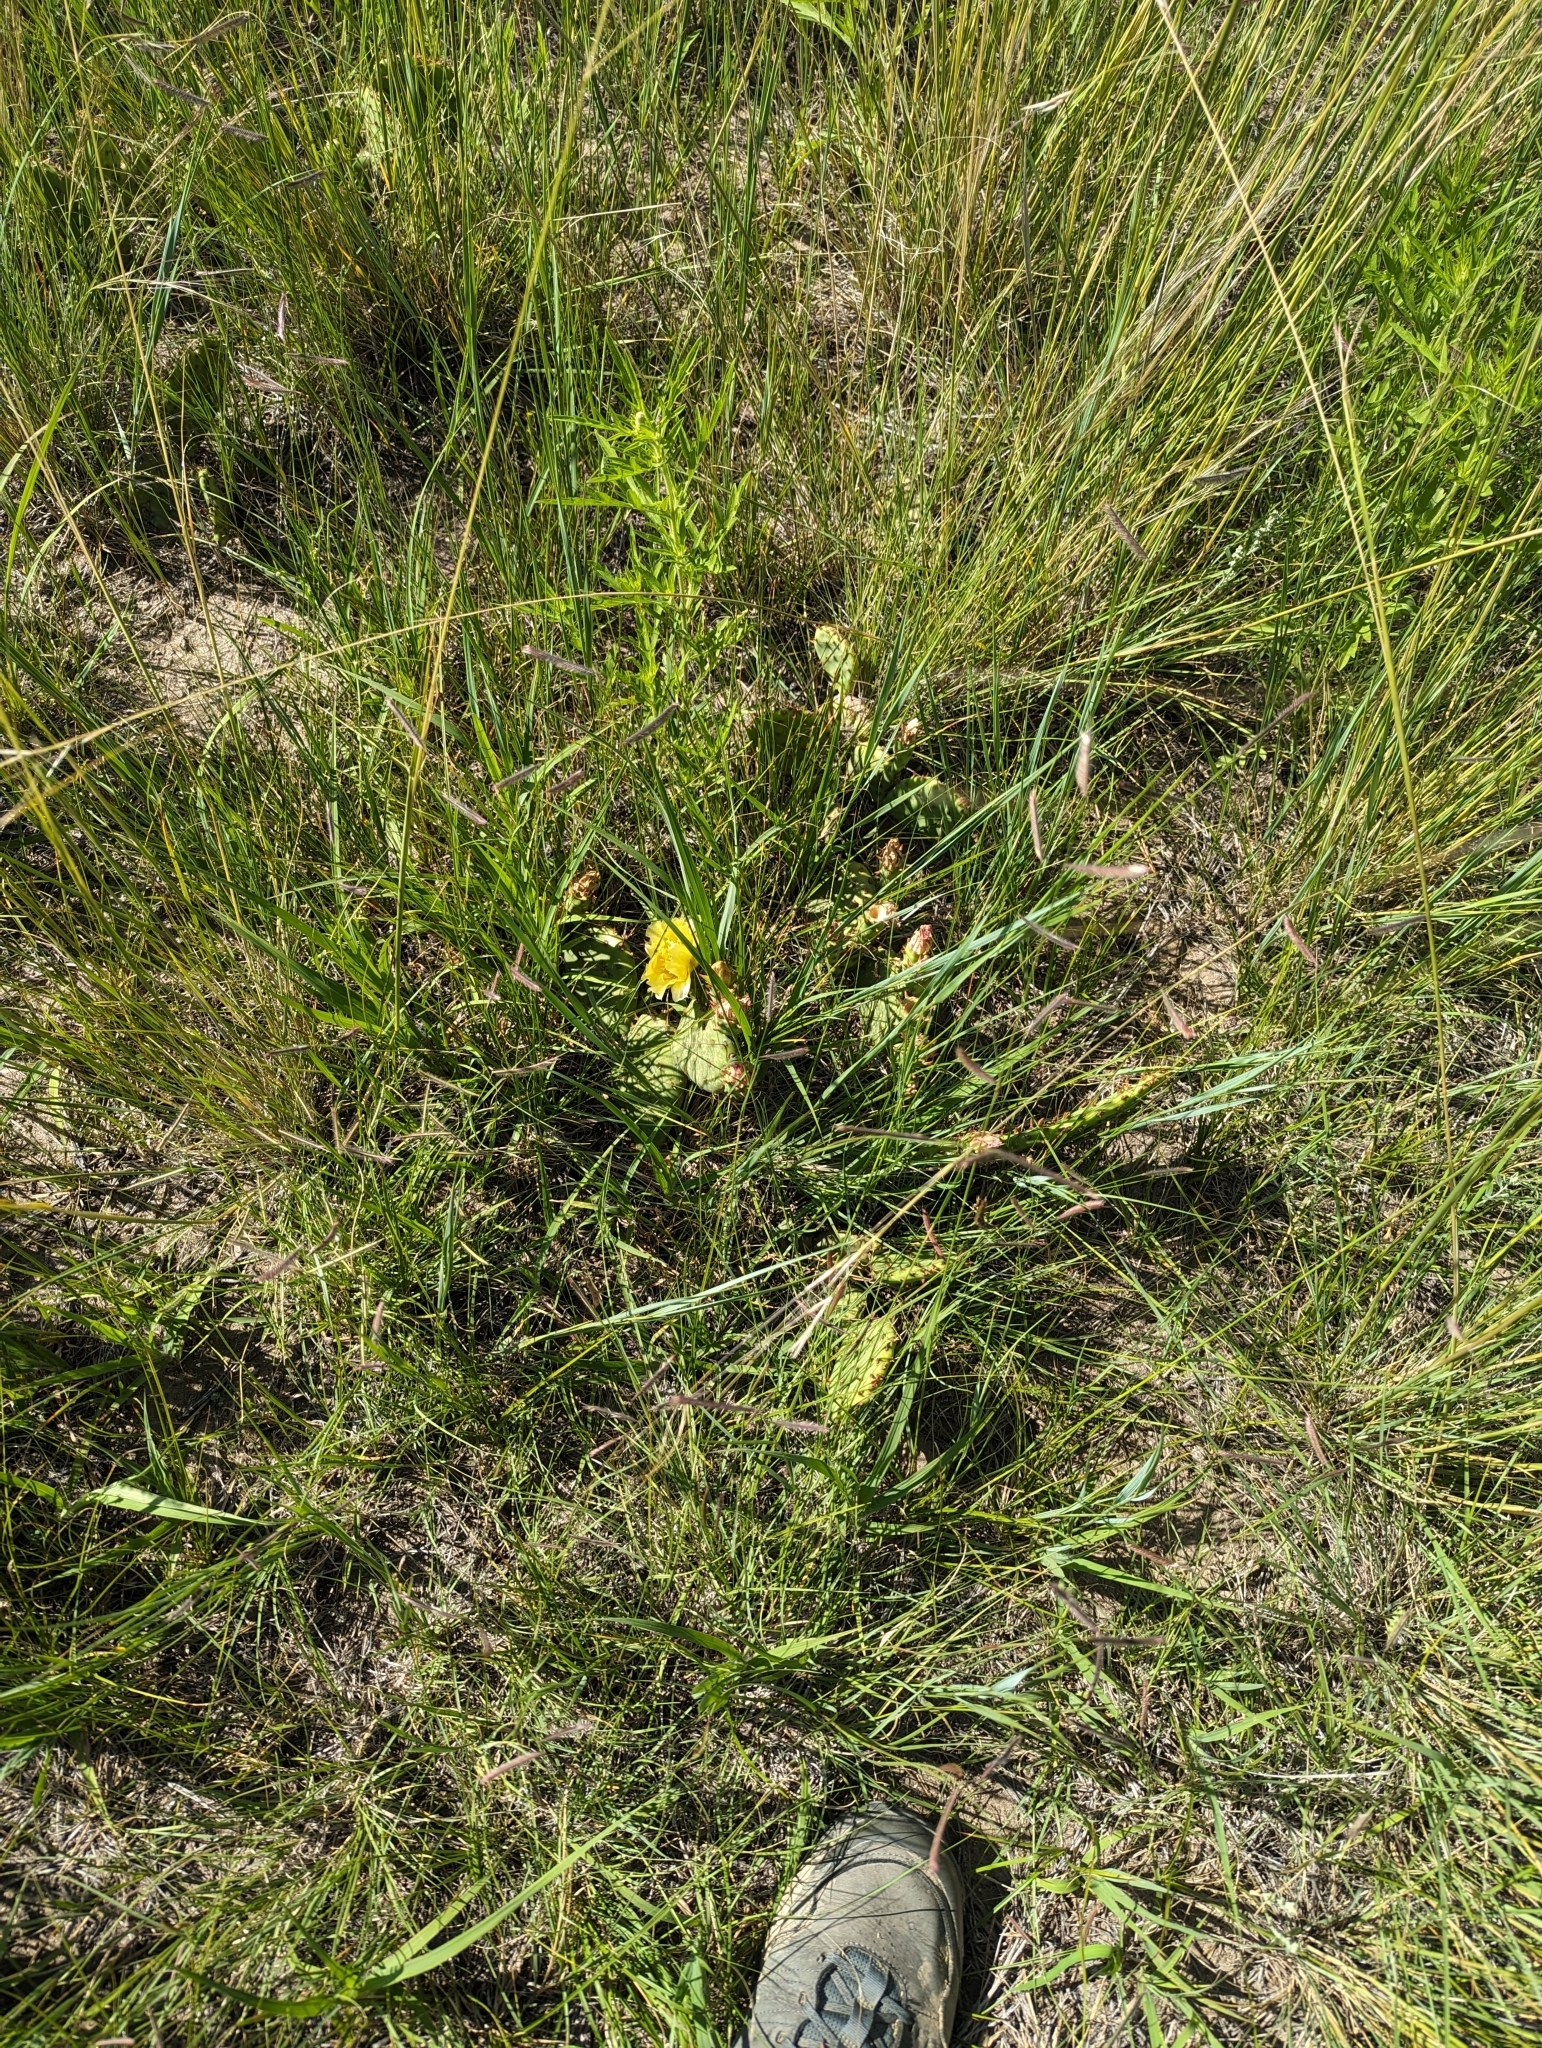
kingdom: Plantae
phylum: Tracheophyta
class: Magnoliopsida
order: Caryophyllales
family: Cactaceae
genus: Opuntia
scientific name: Opuntia macrorhiza
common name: Grassland pricklypear
